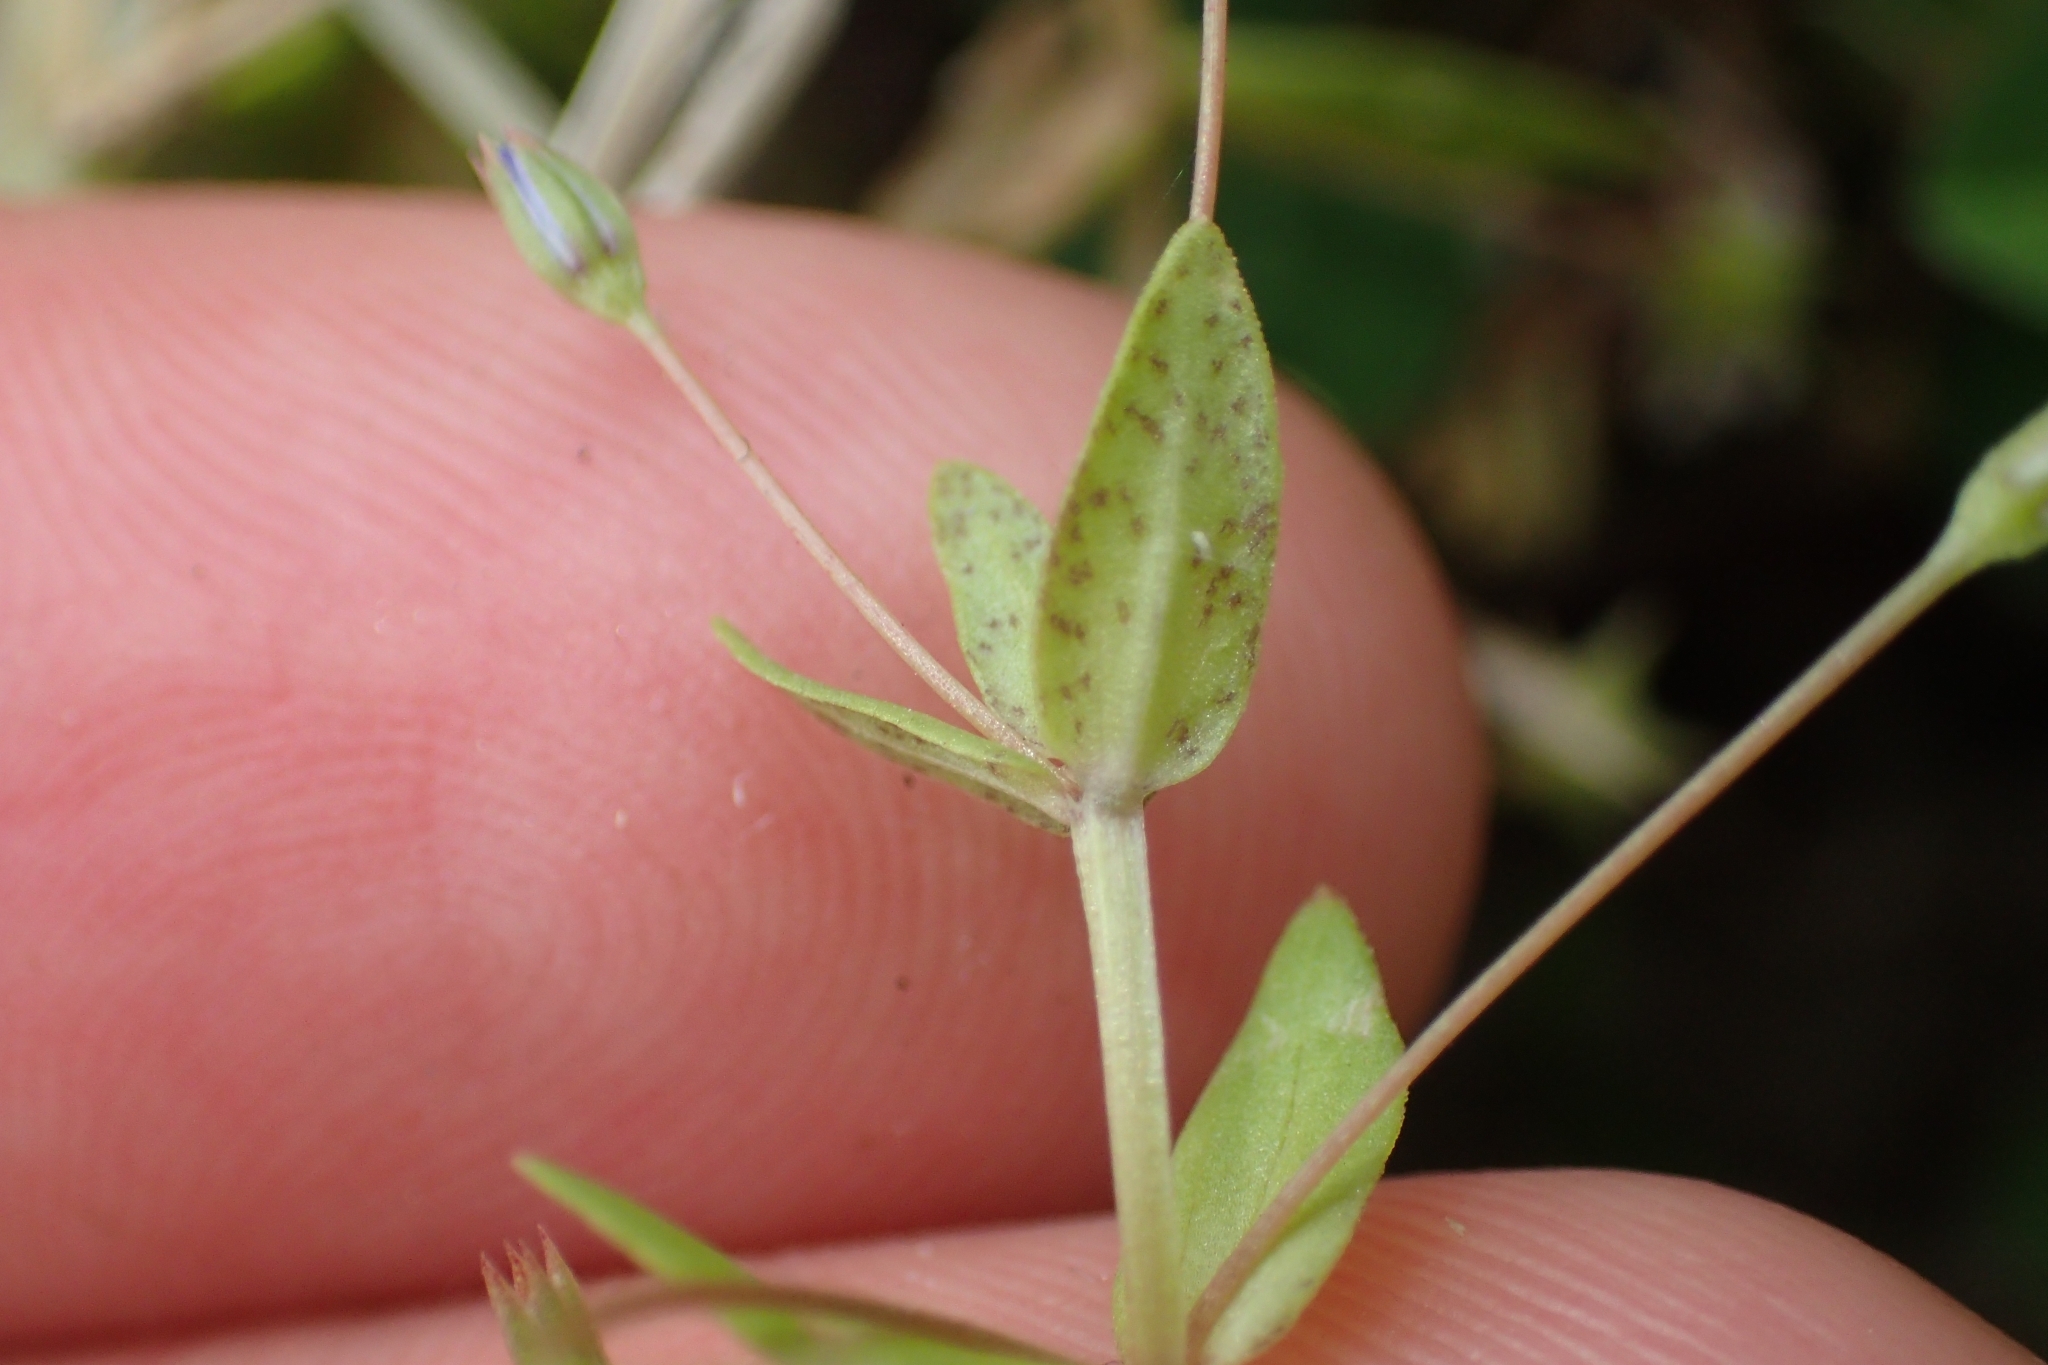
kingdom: Plantae
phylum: Tracheophyta
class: Magnoliopsida
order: Ericales
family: Primulaceae
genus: Lysimachia
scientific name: Lysimachia loeflingii
